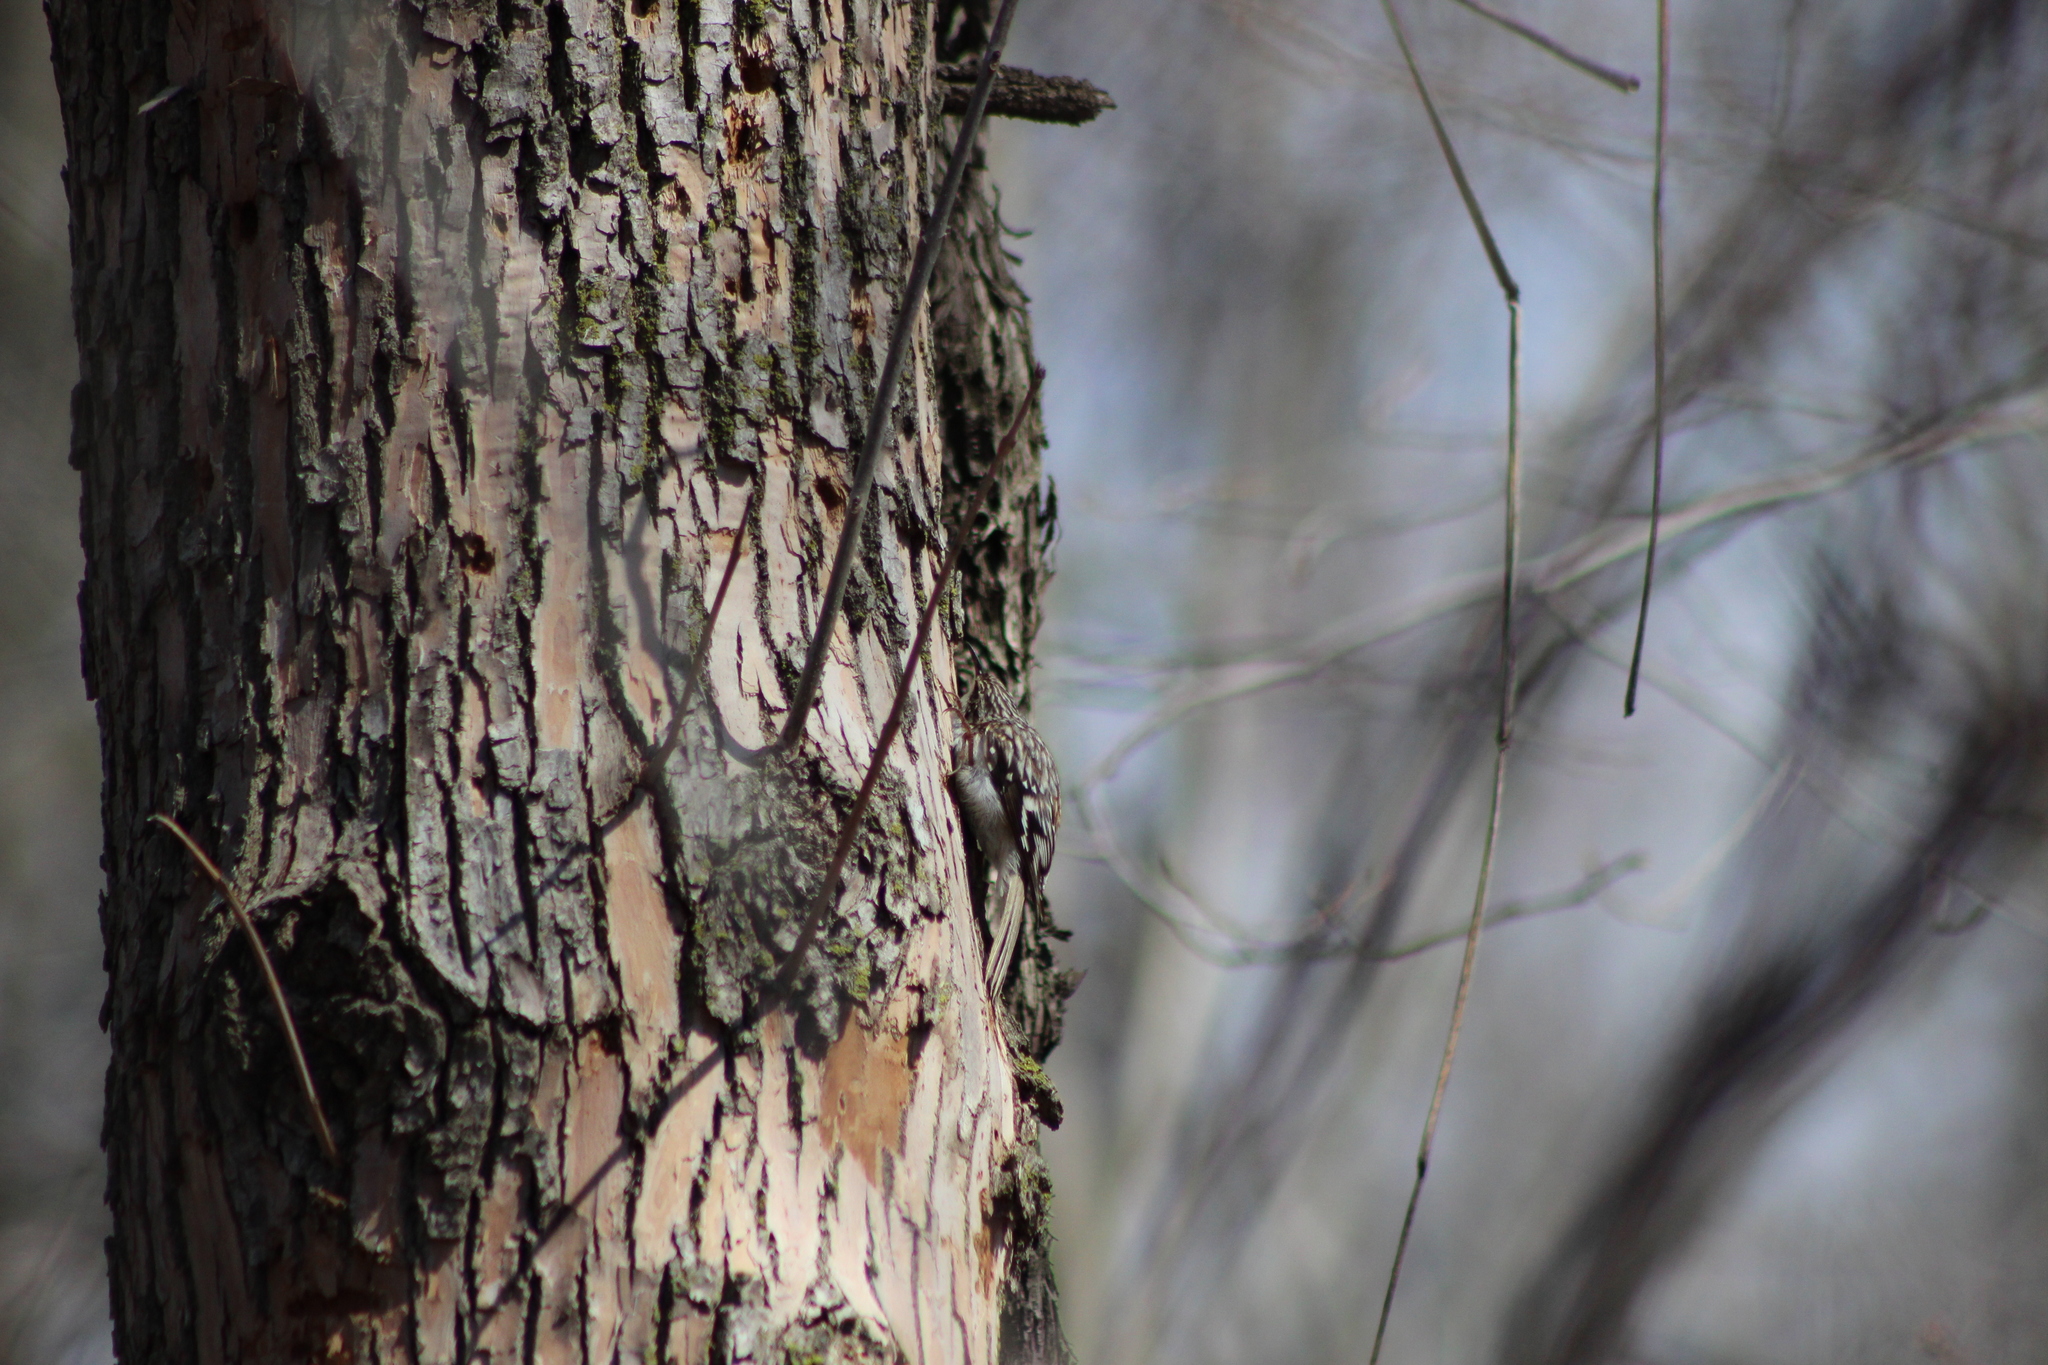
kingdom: Animalia
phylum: Chordata
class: Aves
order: Passeriformes
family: Certhiidae
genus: Certhia
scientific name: Certhia americana
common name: Brown creeper
